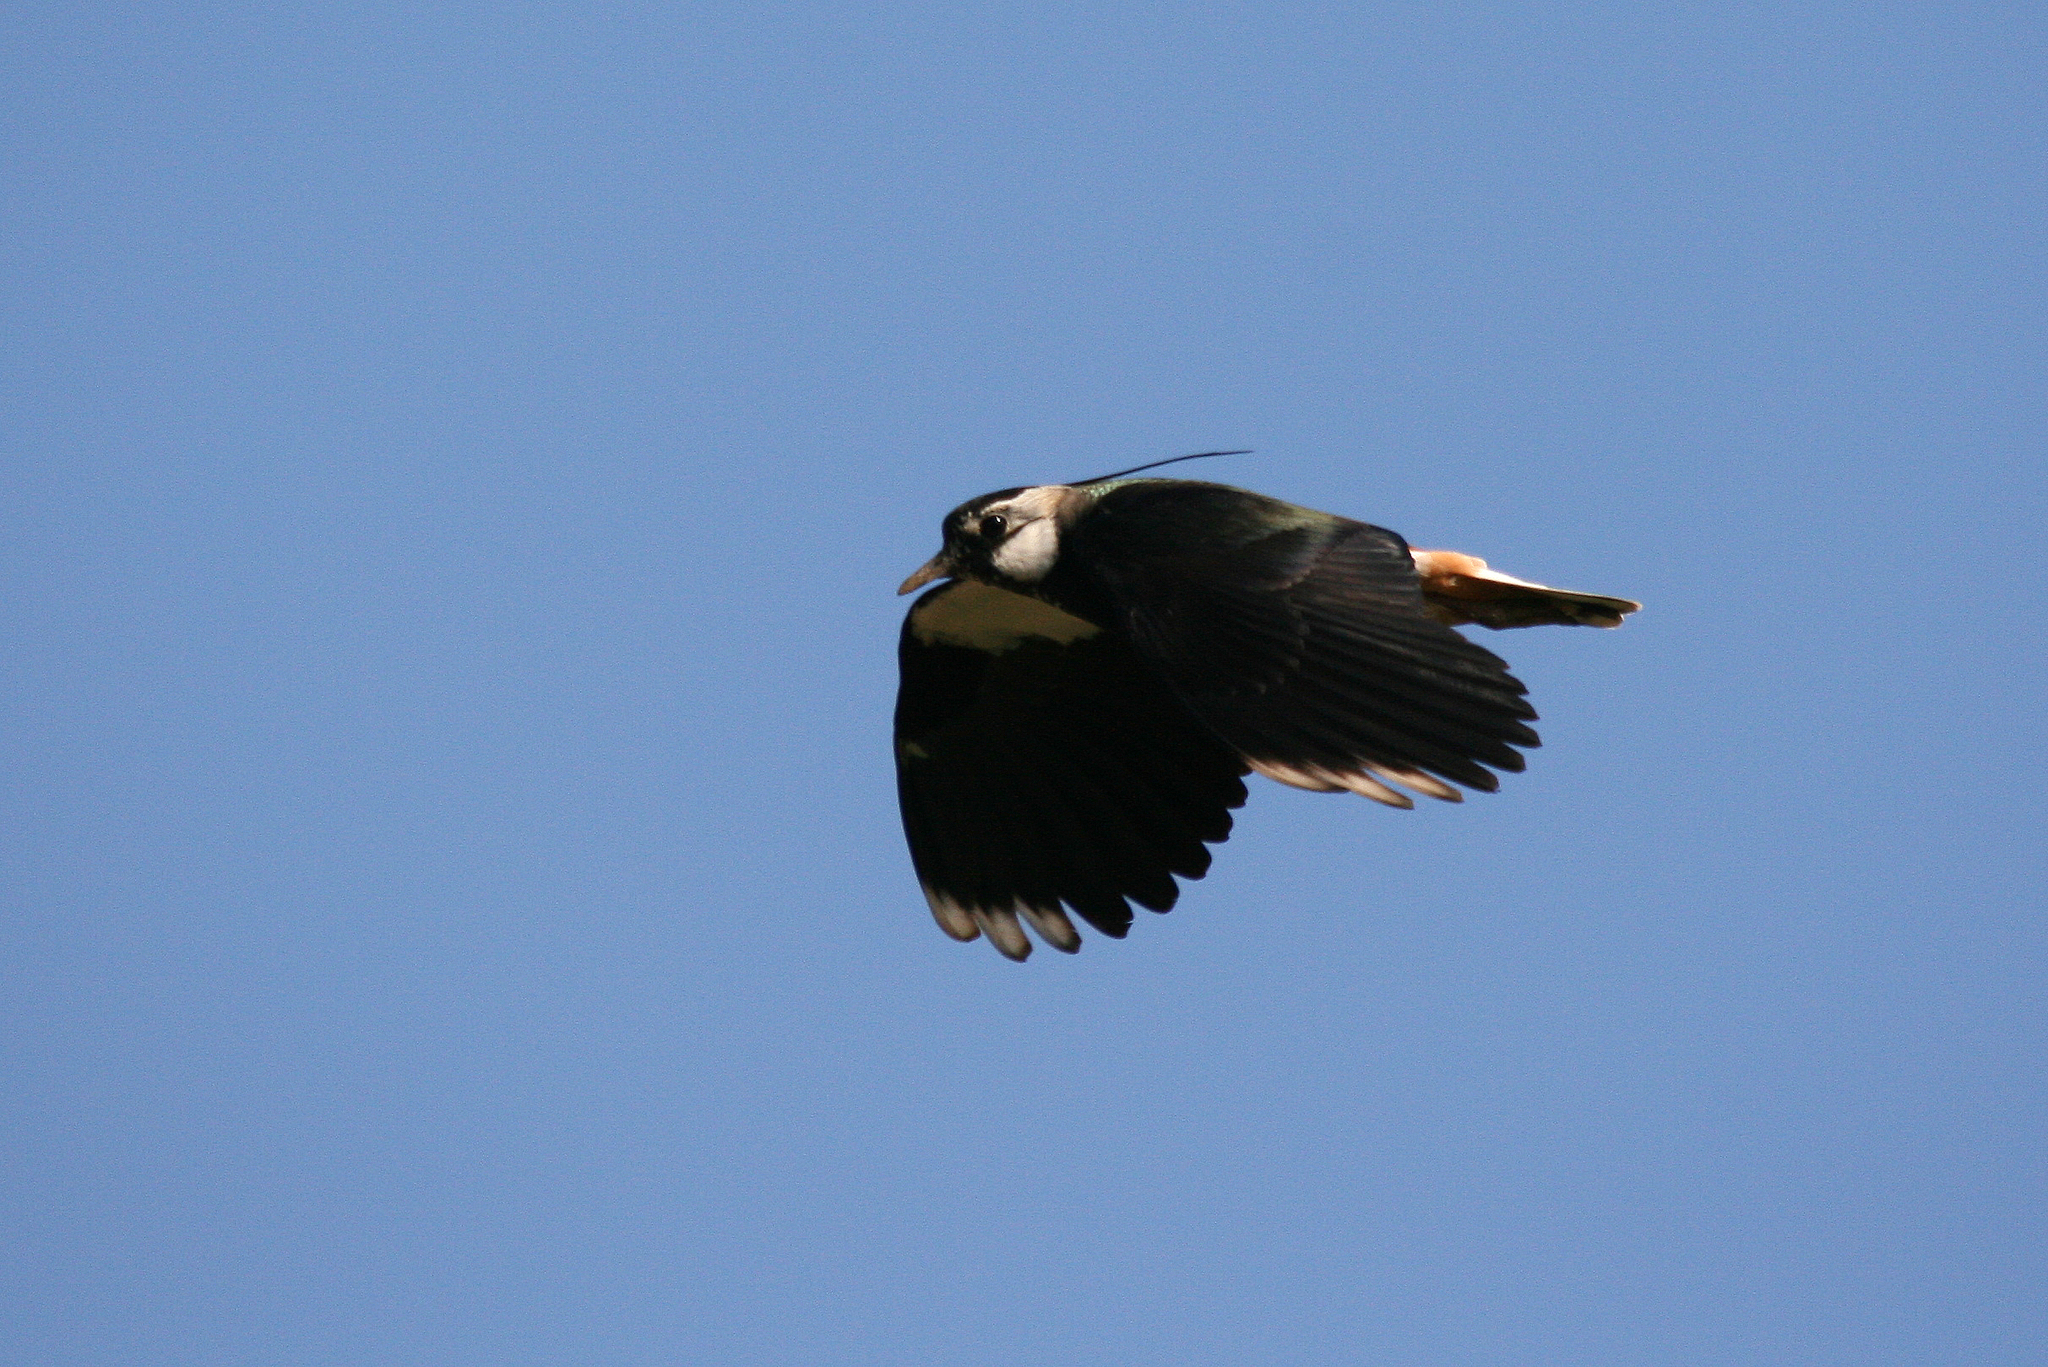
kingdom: Animalia
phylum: Chordata
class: Aves
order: Charadriiformes
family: Charadriidae
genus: Vanellus
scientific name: Vanellus vanellus
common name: Northern lapwing
